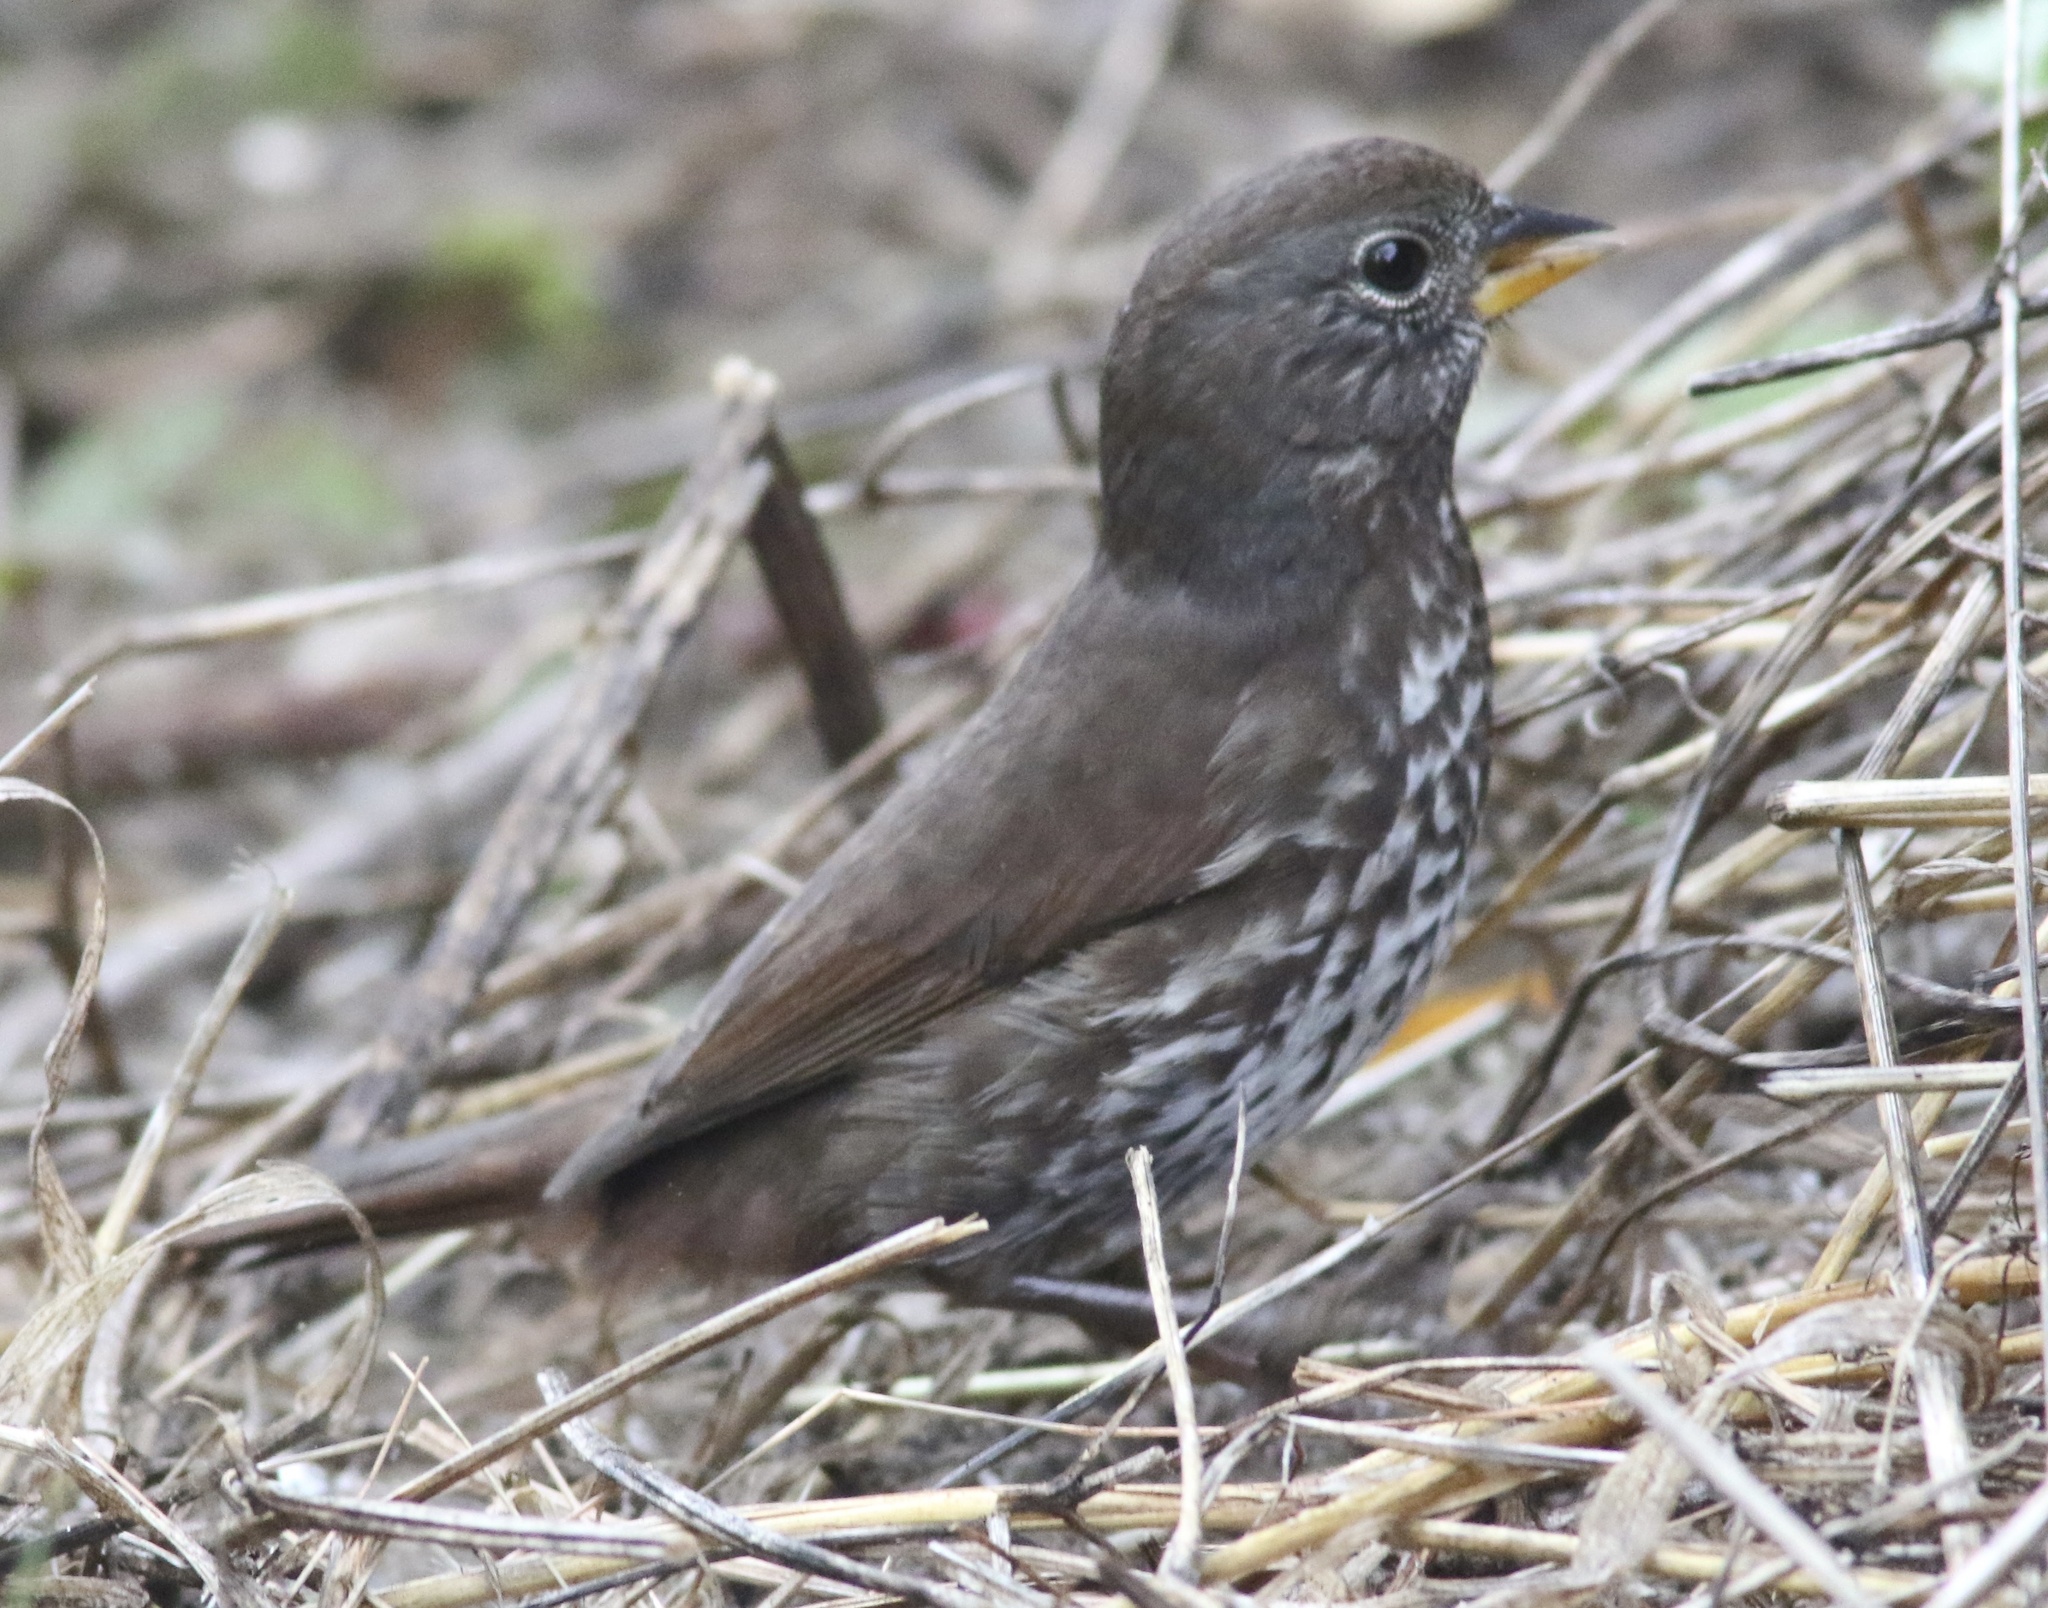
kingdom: Animalia
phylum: Chordata
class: Aves
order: Passeriformes
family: Passerellidae
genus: Passerella
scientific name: Passerella iliaca
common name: Fox sparrow
